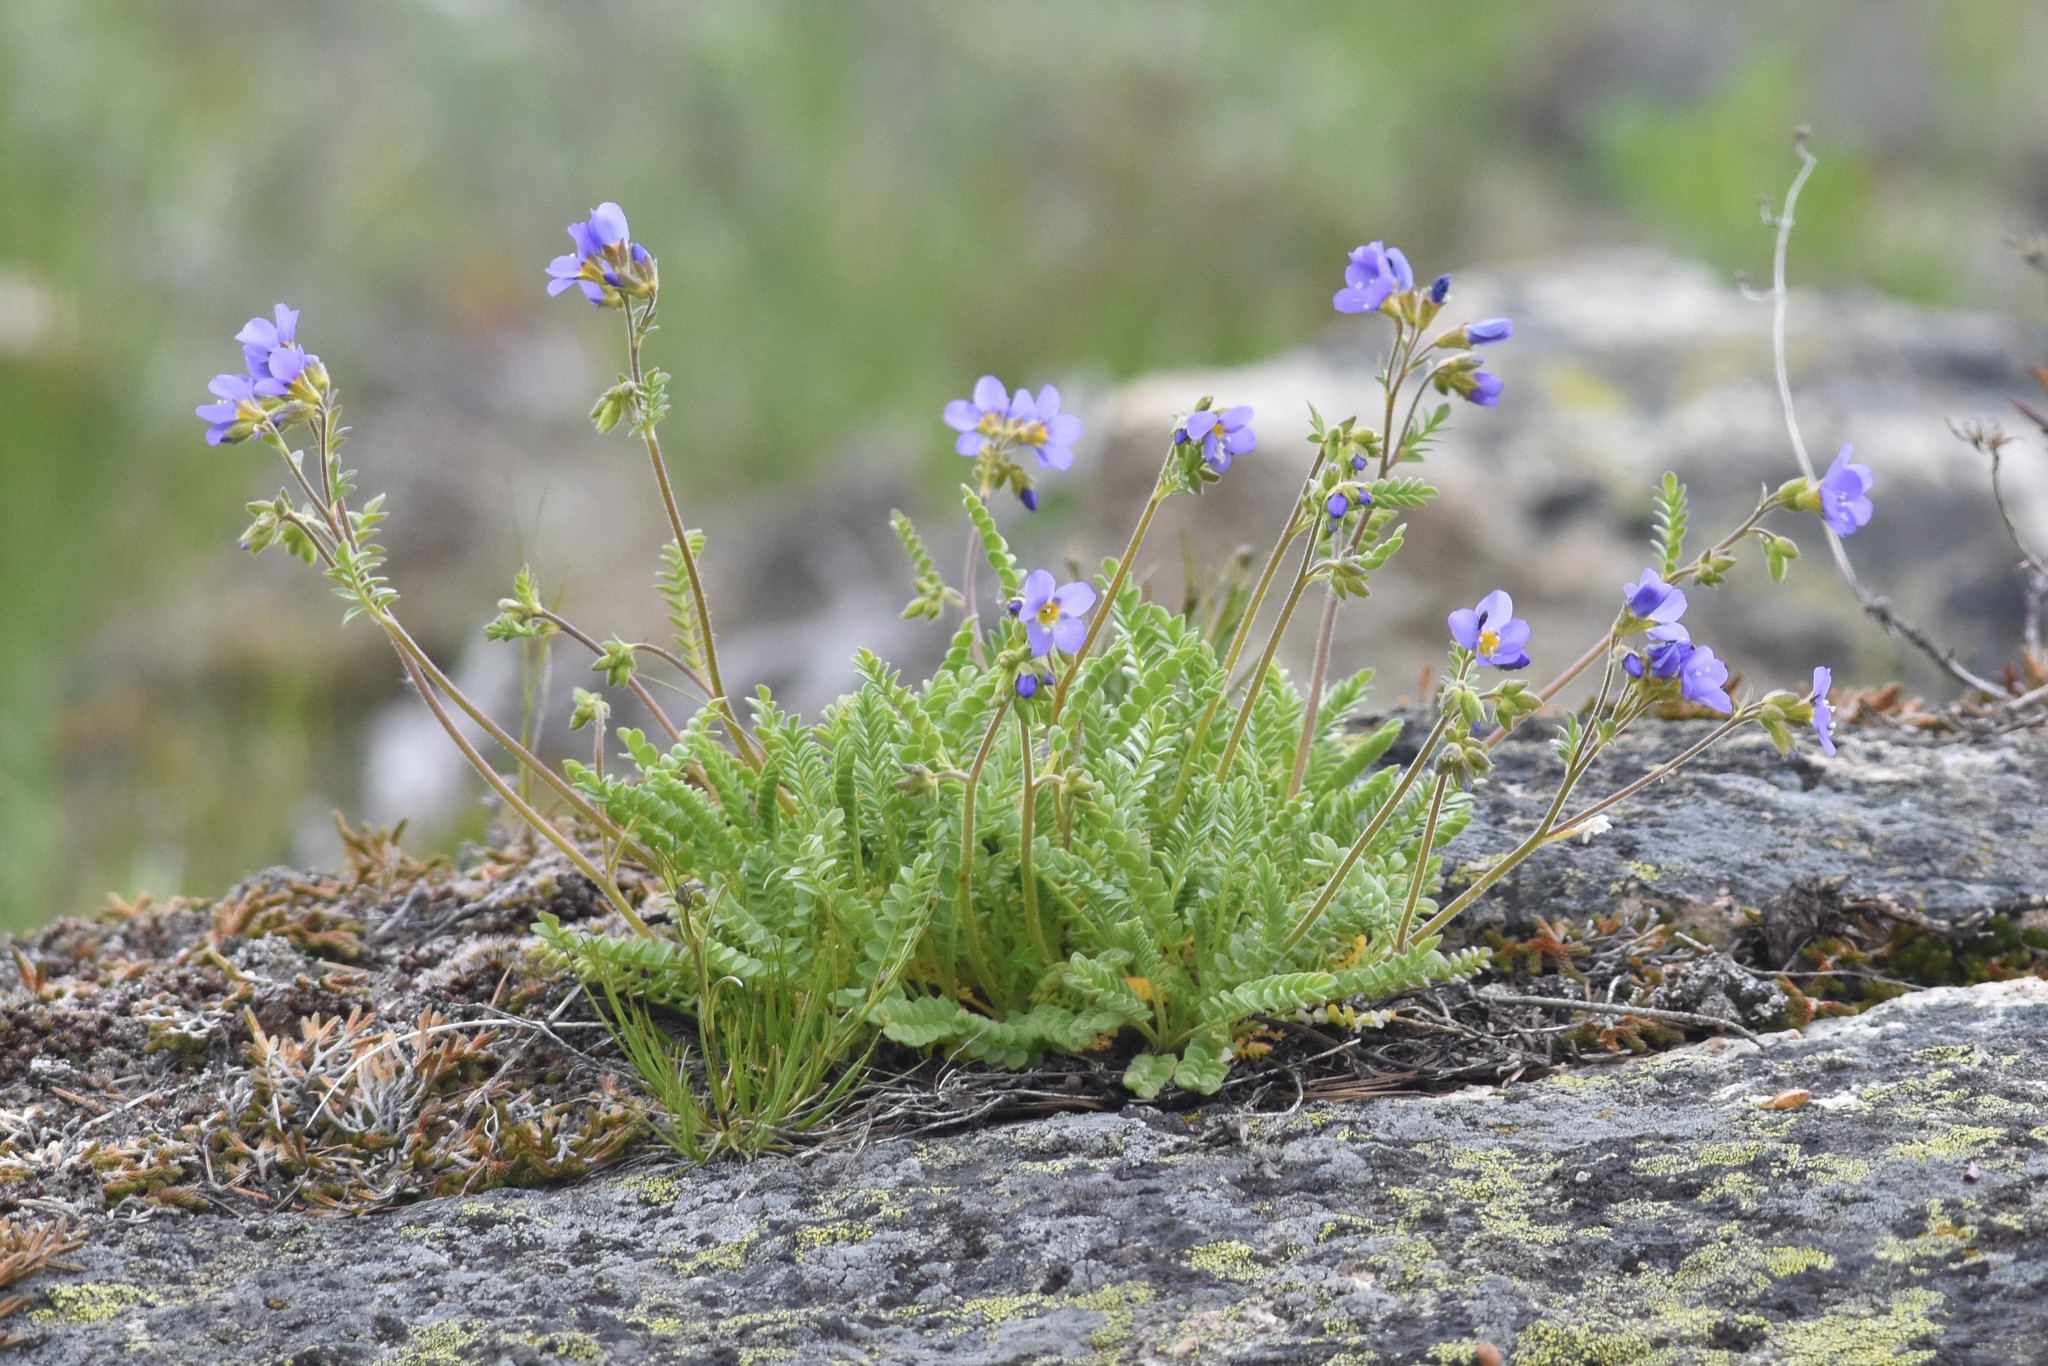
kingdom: Plantae
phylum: Tracheophyta
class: Magnoliopsida
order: Ericales
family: Polemoniaceae
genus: Polemonium
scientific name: Polemonium pulcherrimum
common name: Short jacob's-ladder
